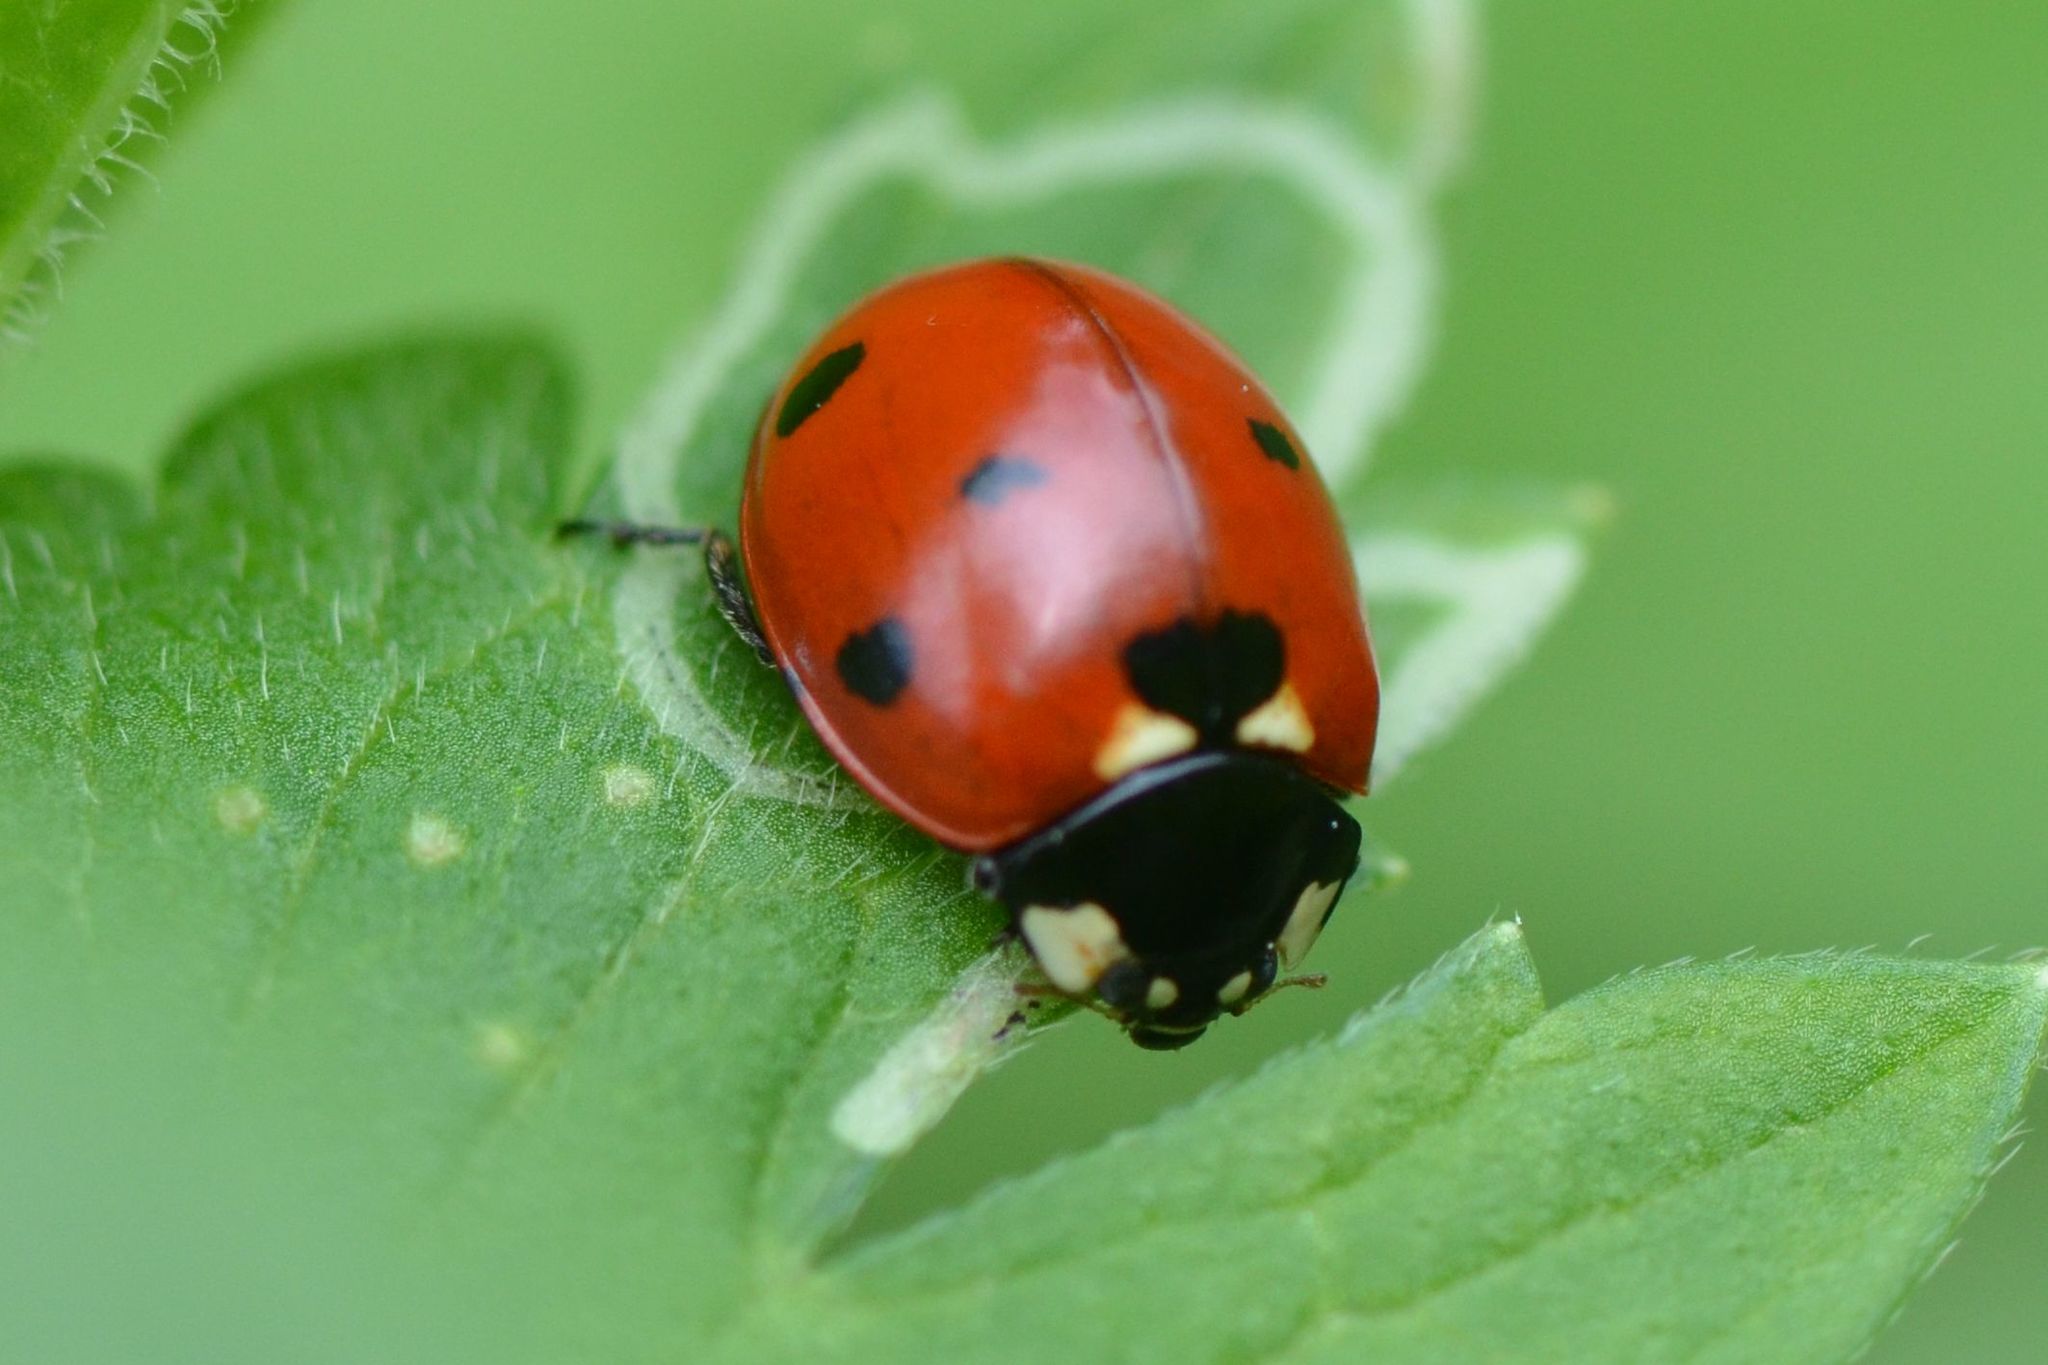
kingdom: Animalia
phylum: Arthropoda
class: Insecta
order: Coleoptera
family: Coccinellidae
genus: Coccinella
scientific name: Coccinella septempunctata
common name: Sevenspotted lady beetle
